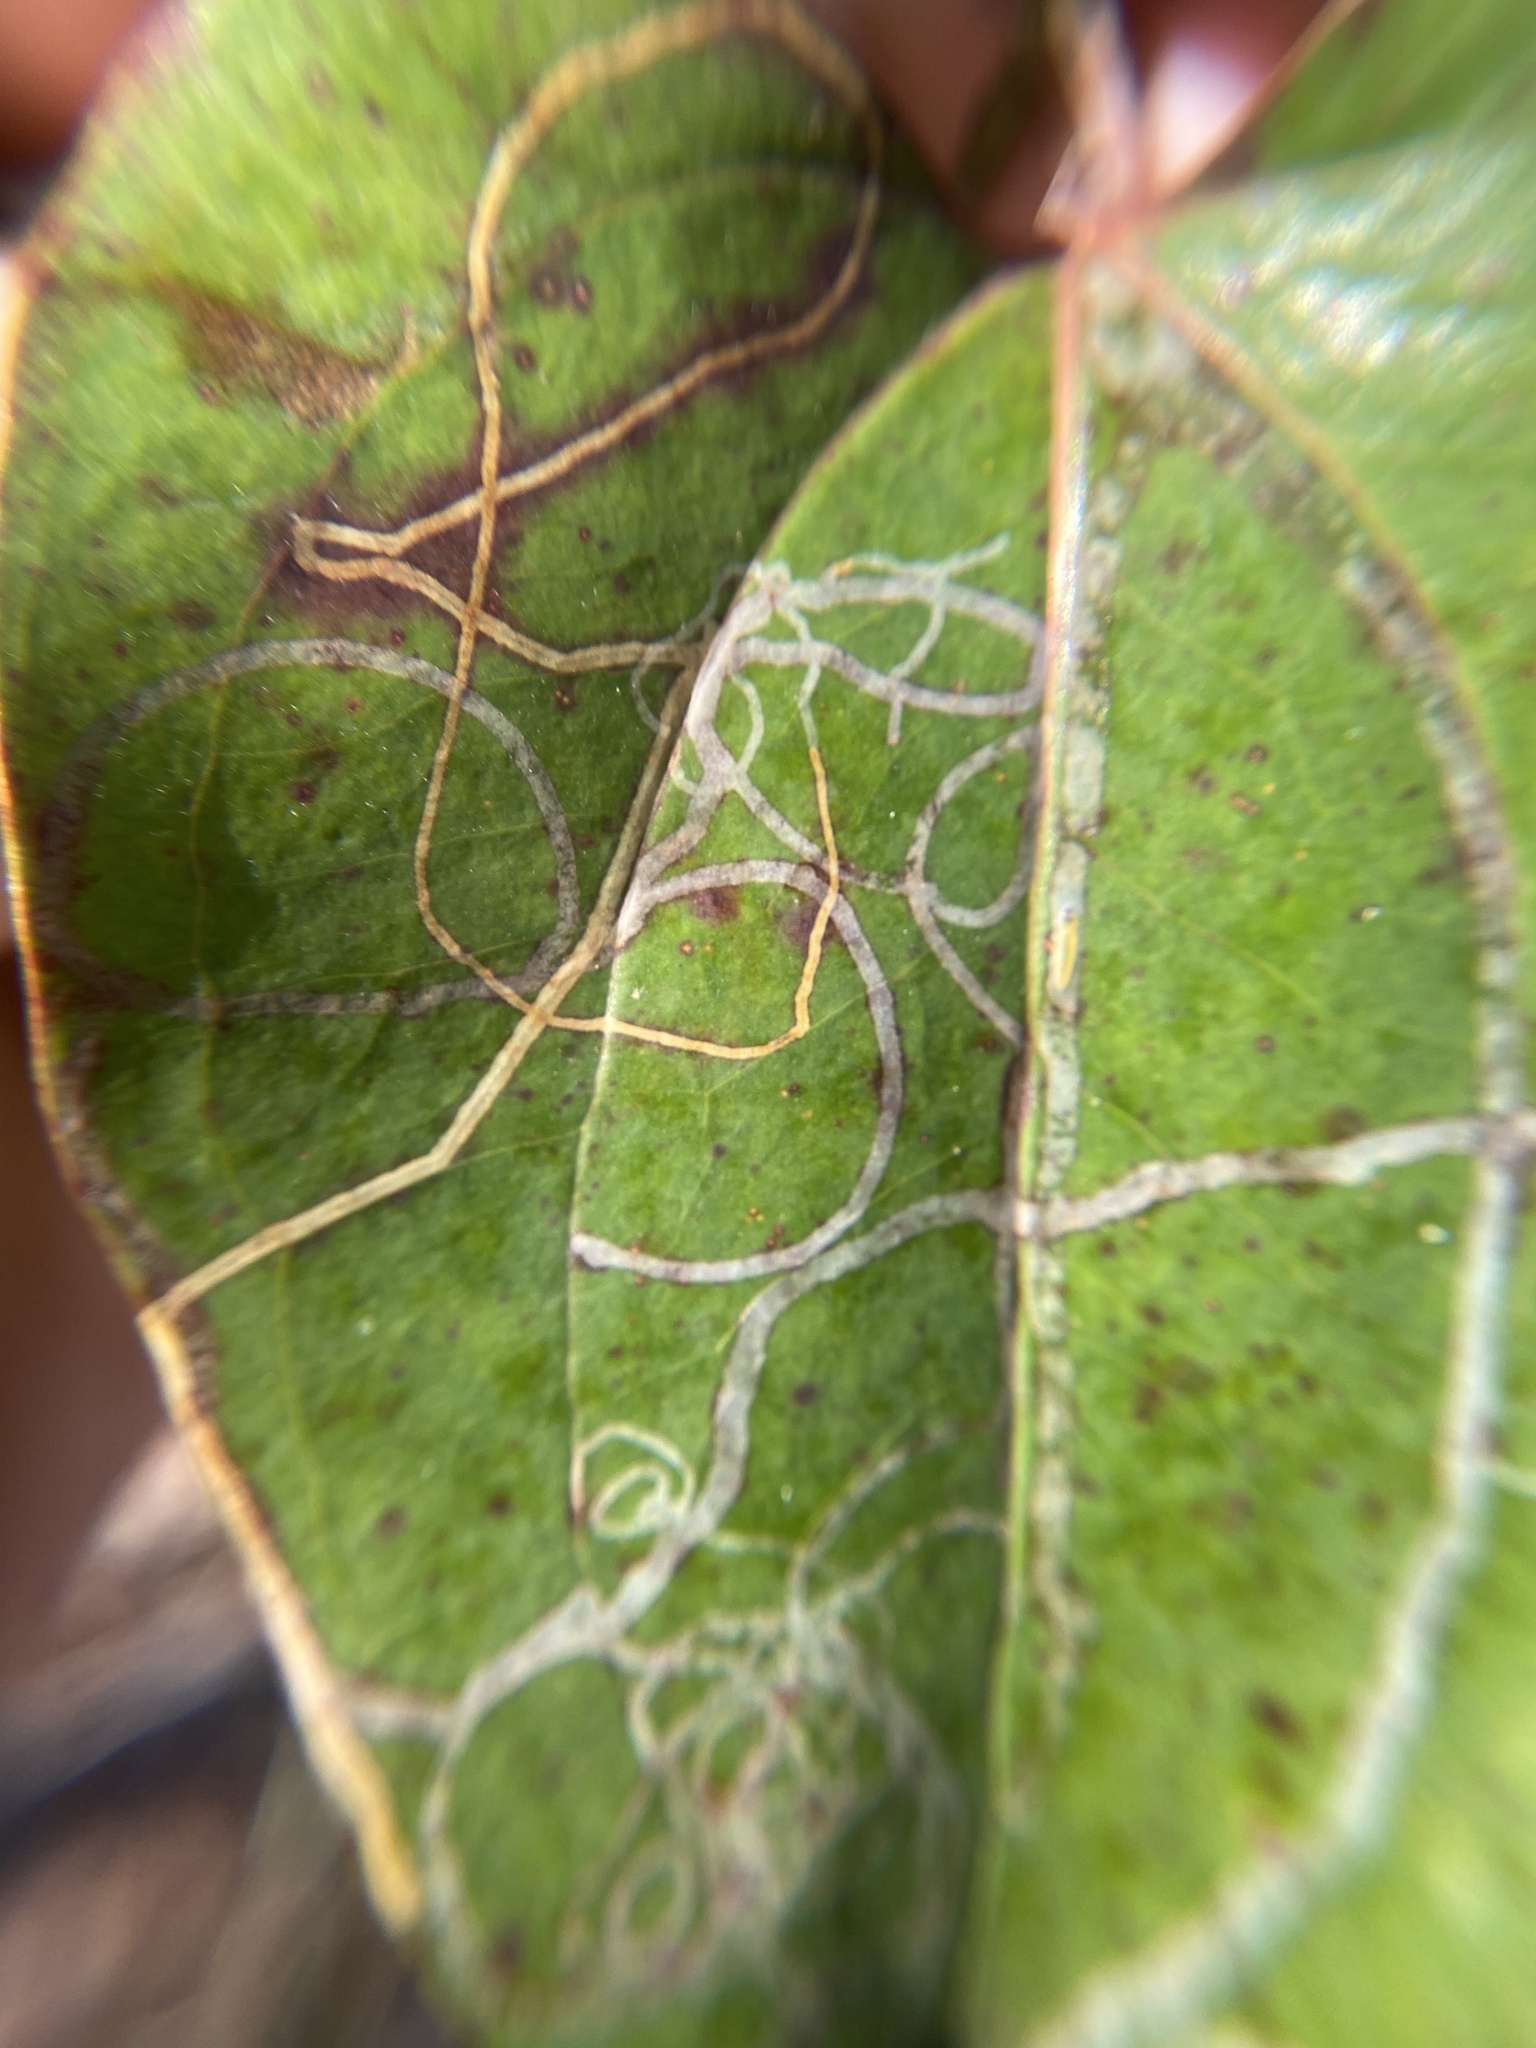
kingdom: Animalia
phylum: Arthropoda
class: Insecta
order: Lepidoptera
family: Gracillariidae
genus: Marmara
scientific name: Marmara smilacisella
